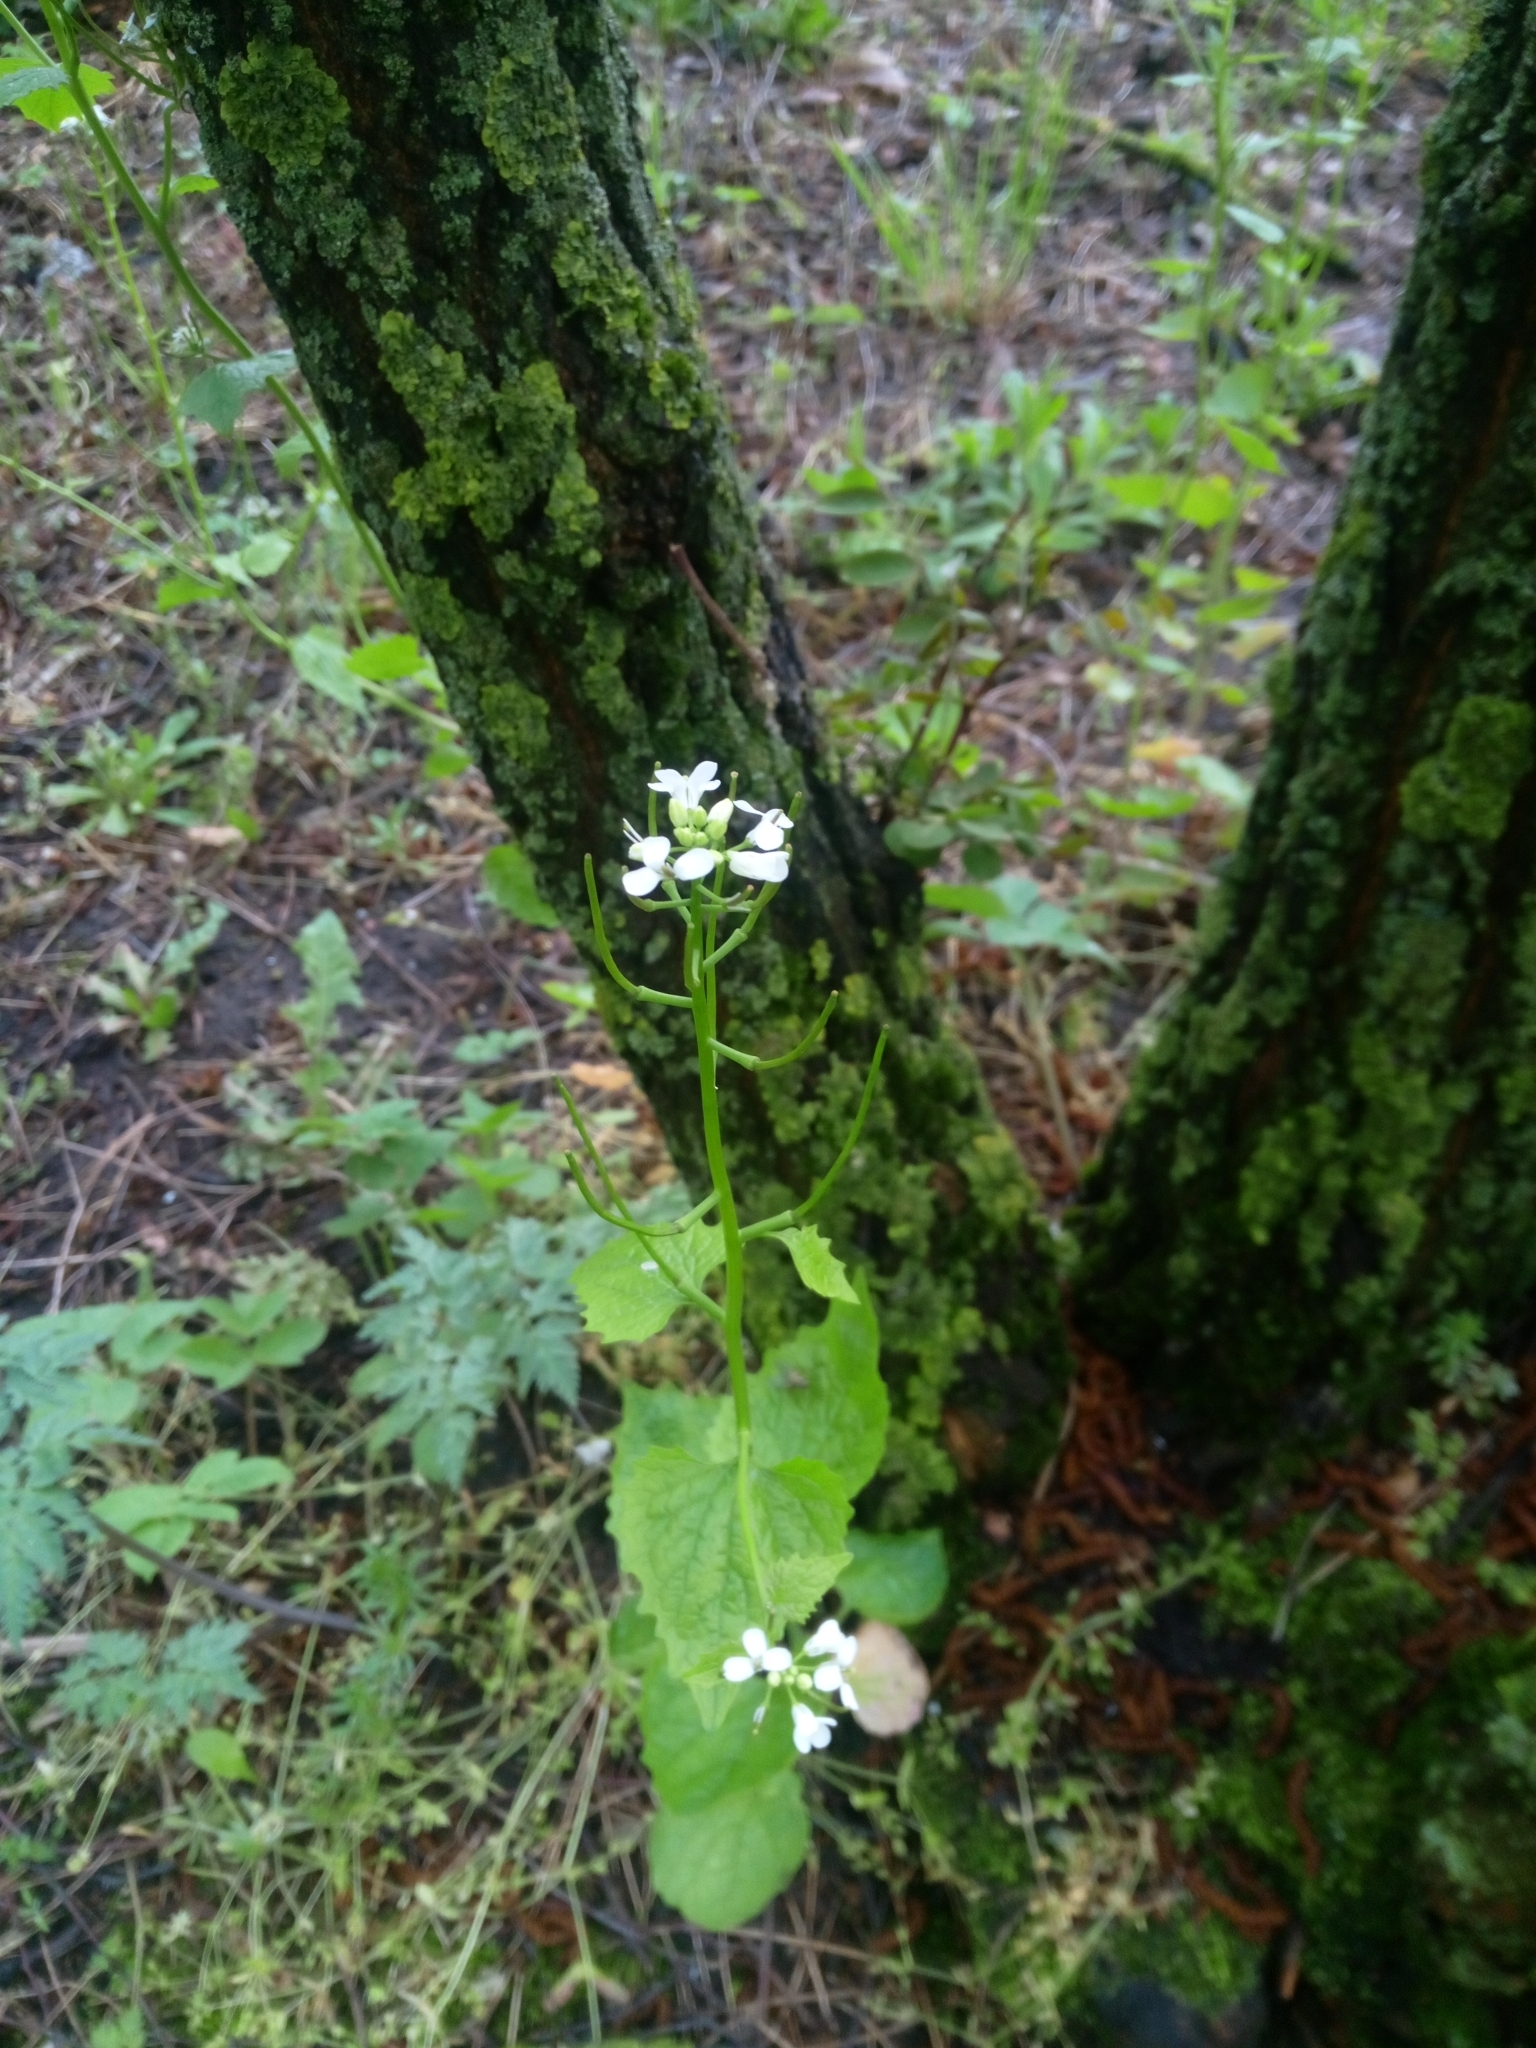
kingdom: Plantae
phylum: Tracheophyta
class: Magnoliopsida
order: Brassicales
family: Brassicaceae
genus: Alliaria
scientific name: Alliaria petiolata
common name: Garlic mustard
